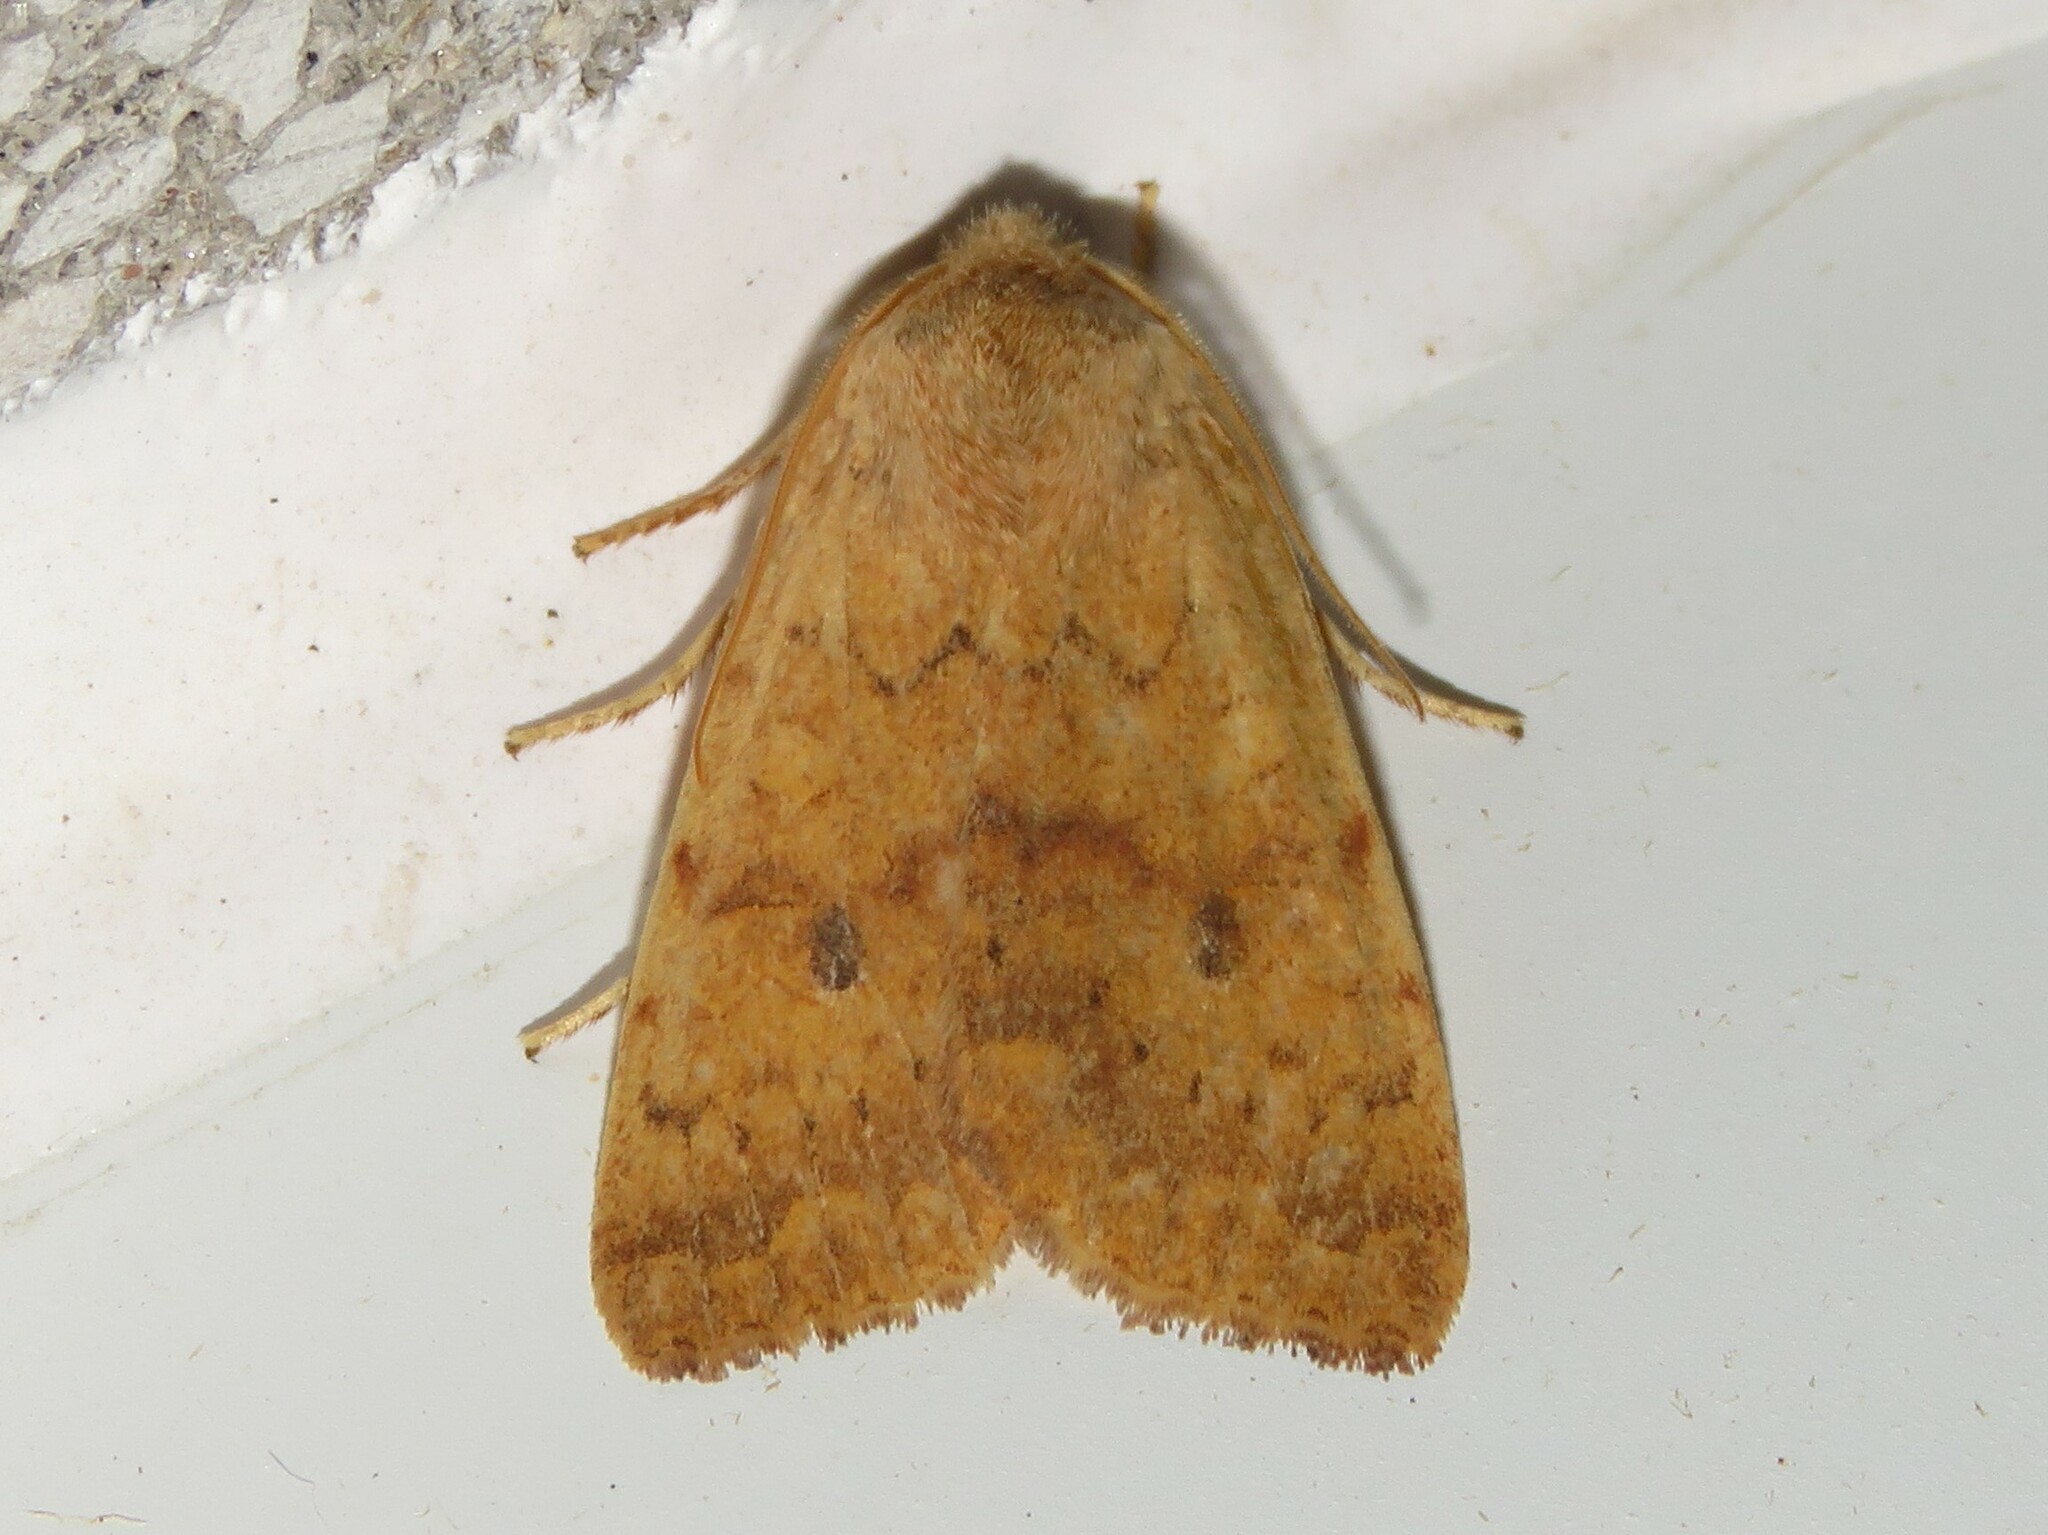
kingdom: Animalia
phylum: Arthropoda
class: Insecta
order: Lepidoptera
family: Noctuidae
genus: Agrochola
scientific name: Agrochola bicolorago
